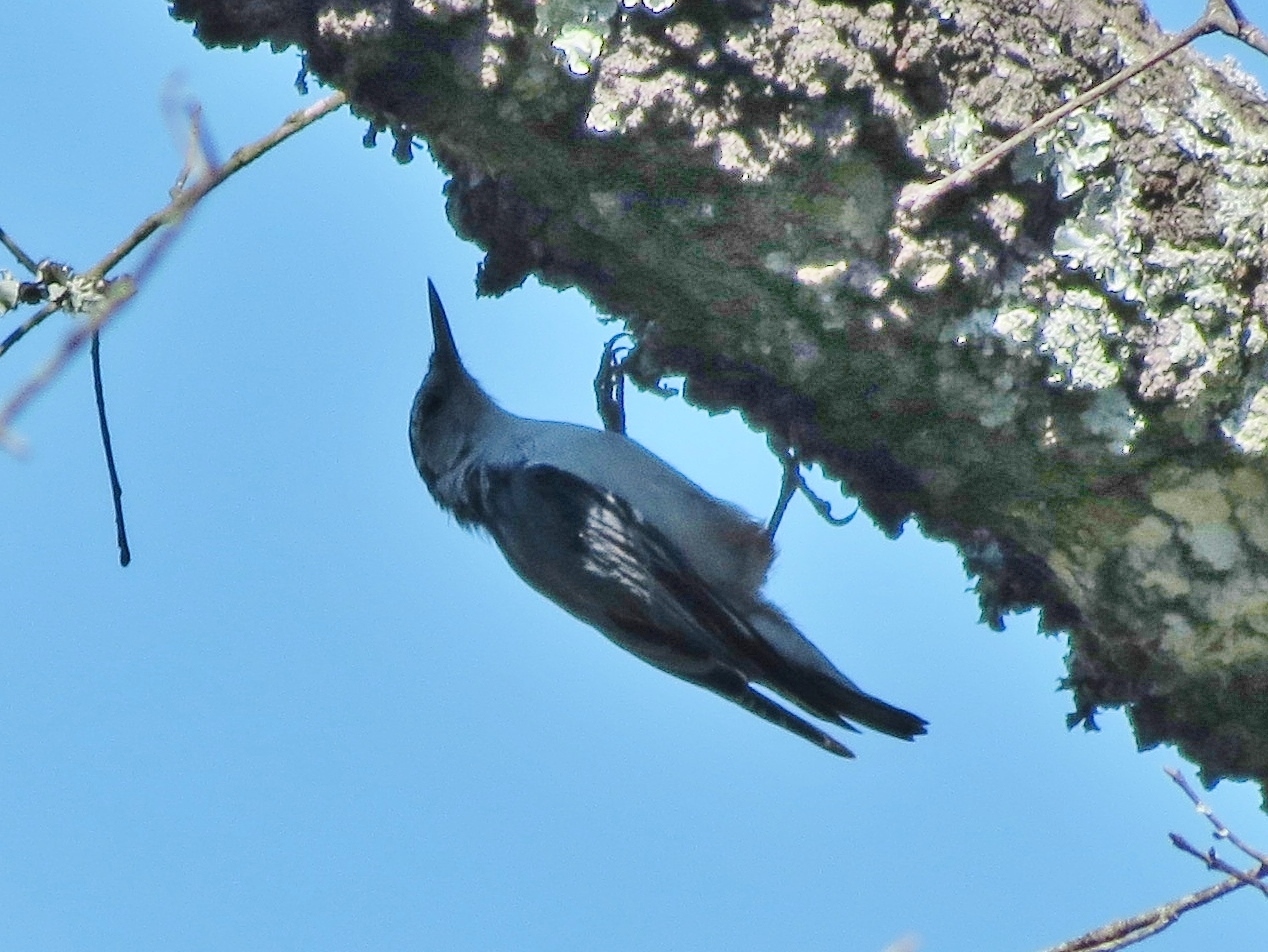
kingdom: Animalia
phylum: Chordata
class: Aves
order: Passeriformes
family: Sittidae
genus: Sitta
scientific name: Sitta carolinensis
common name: White-breasted nuthatch
